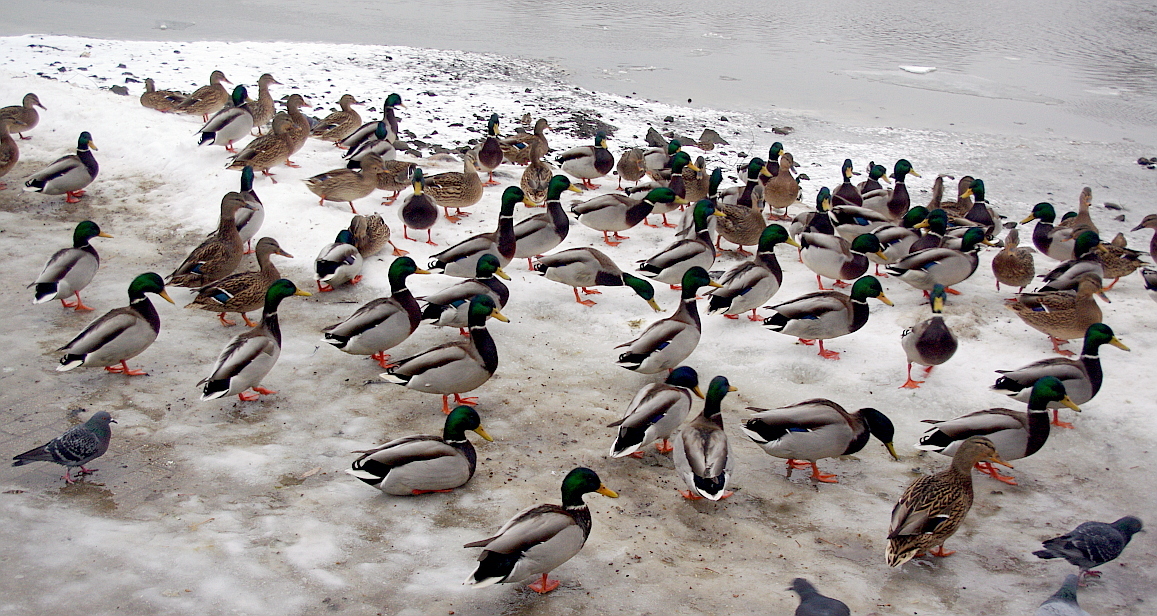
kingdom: Animalia
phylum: Chordata
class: Aves
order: Anseriformes
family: Anatidae
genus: Anas
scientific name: Anas platyrhynchos
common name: Mallard
